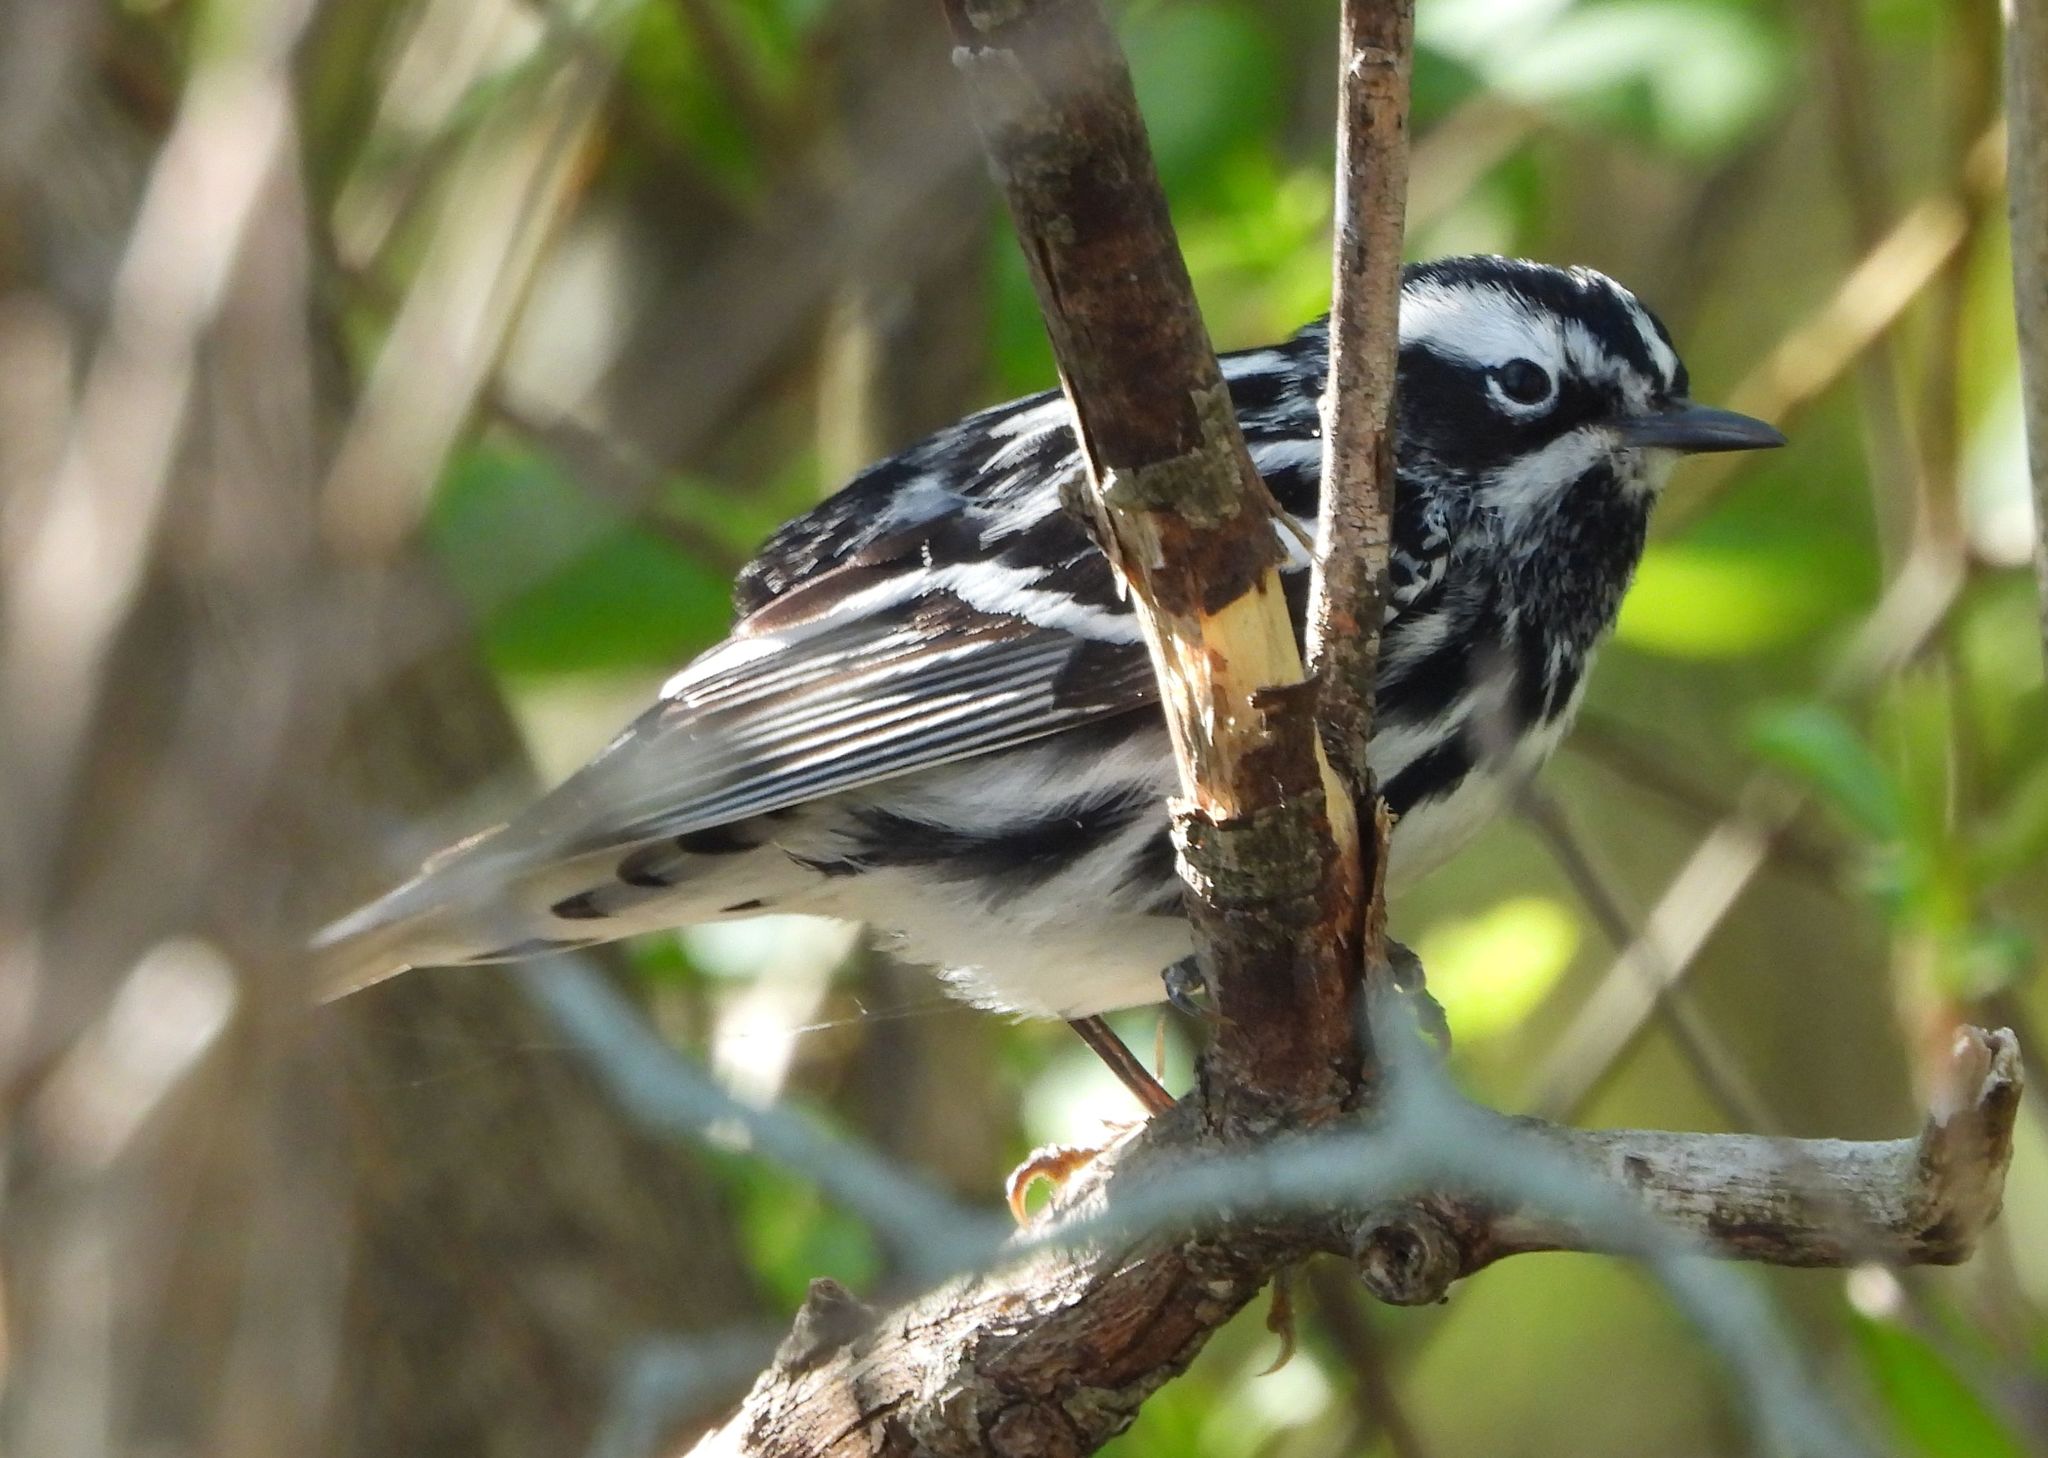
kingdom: Animalia
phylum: Chordata
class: Aves
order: Passeriformes
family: Parulidae
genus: Mniotilta
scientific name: Mniotilta varia
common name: Black-and-white warbler
